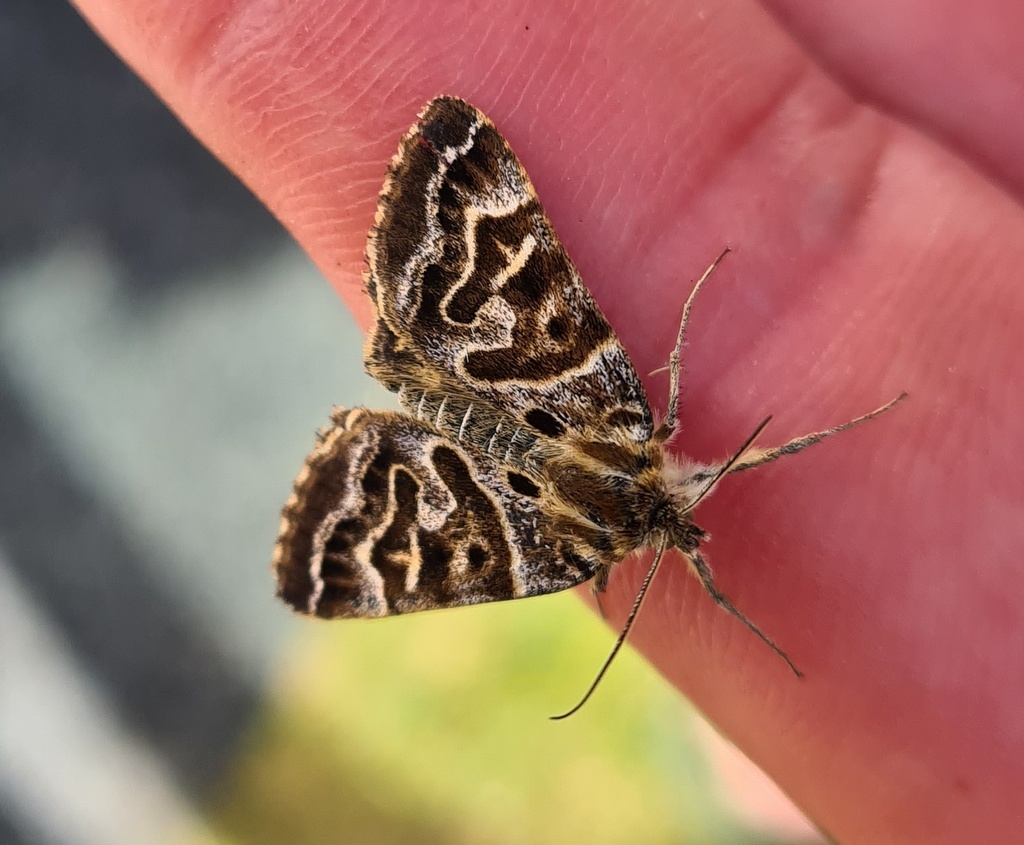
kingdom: Animalia
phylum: Arthropoda
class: Insecta
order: Lepidoptera
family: Erebidae
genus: Callistege
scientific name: Callistege mi
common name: Mother shipton
